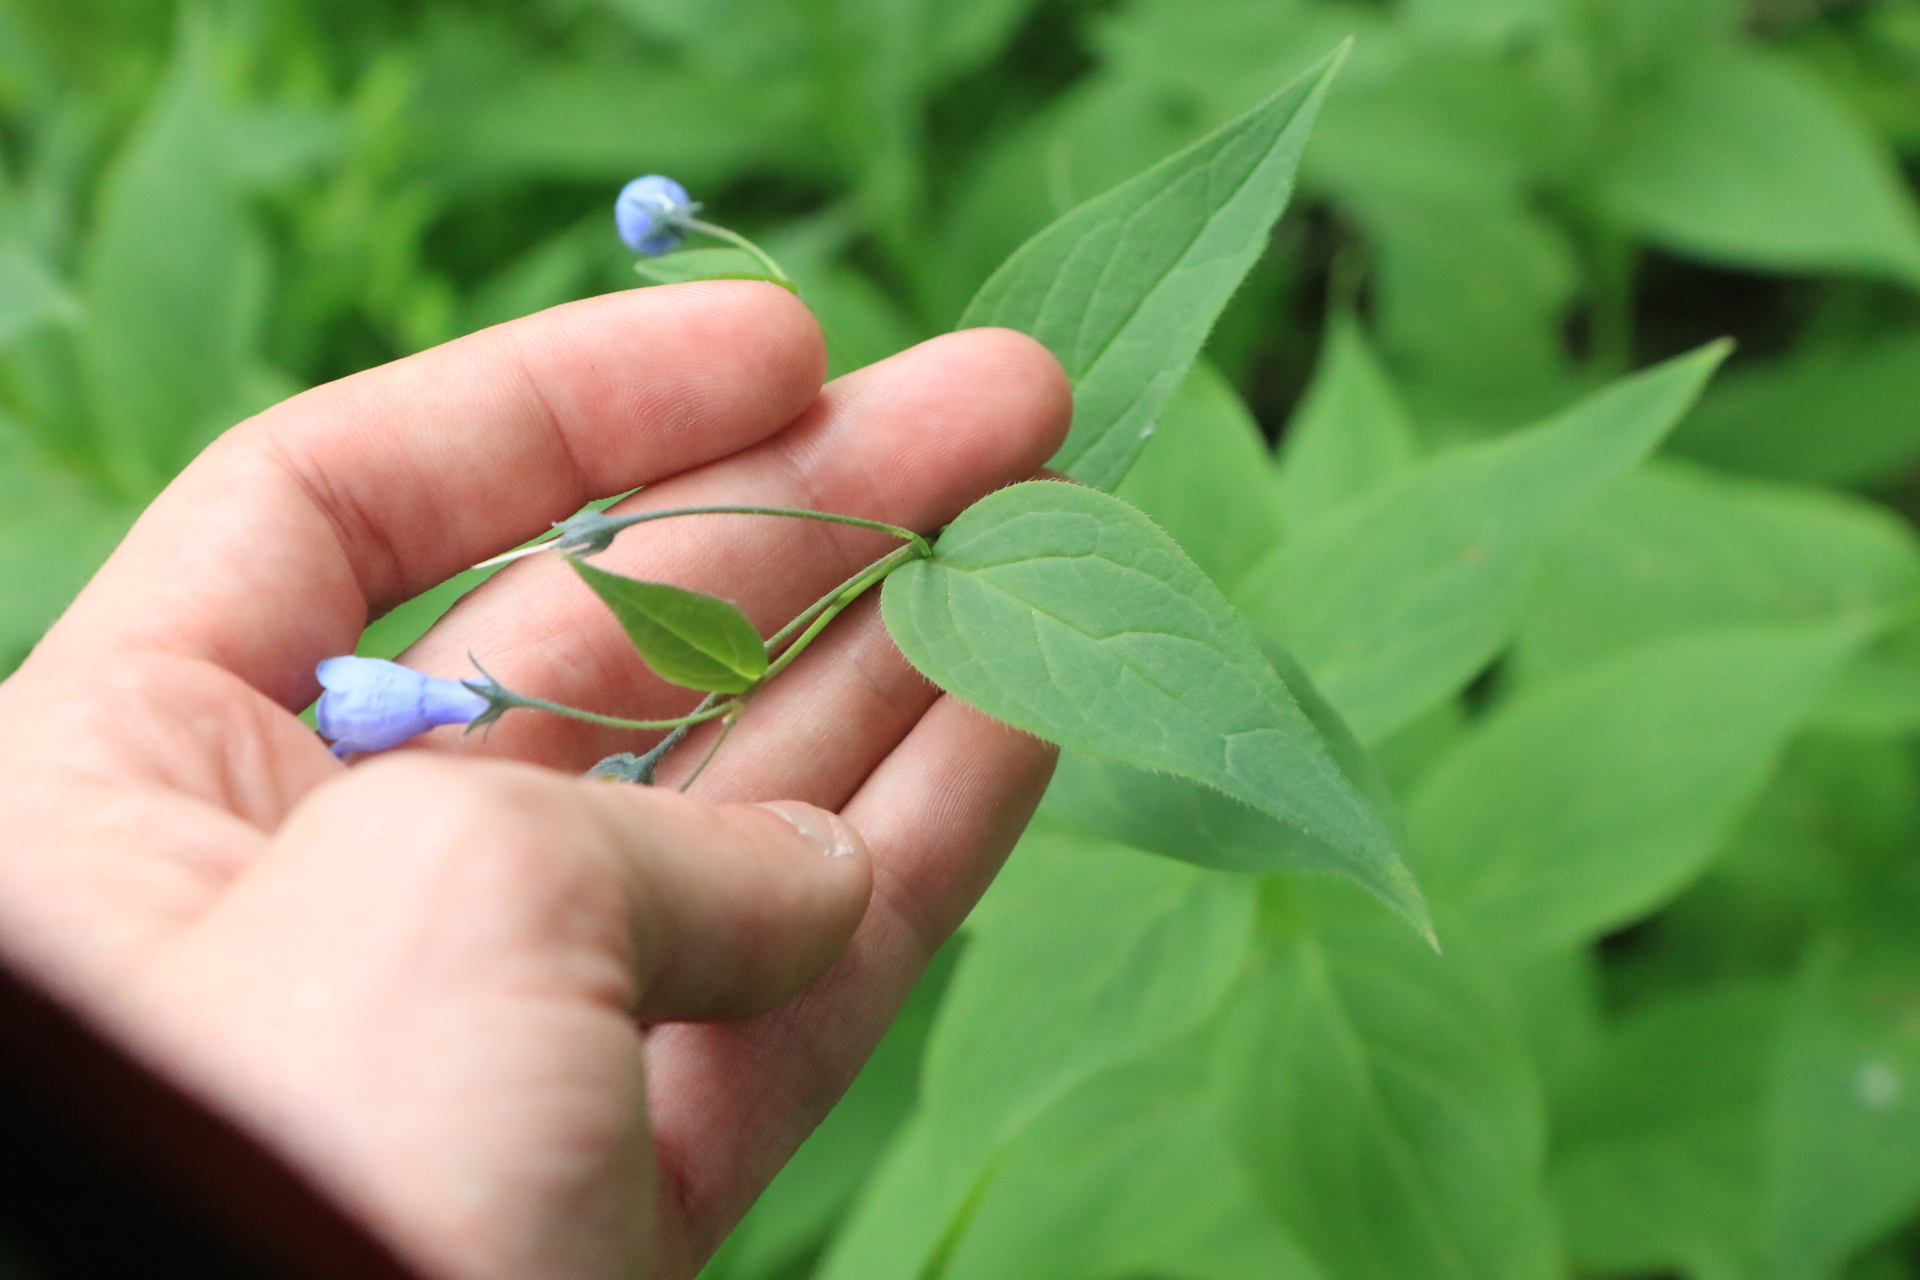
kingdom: Plantae
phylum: Tracheophyta
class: Magnoliopsida
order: Boraginales
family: Boraginaceae
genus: Mertensia
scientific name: Mertensia paniculata
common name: Panicled bluebells
